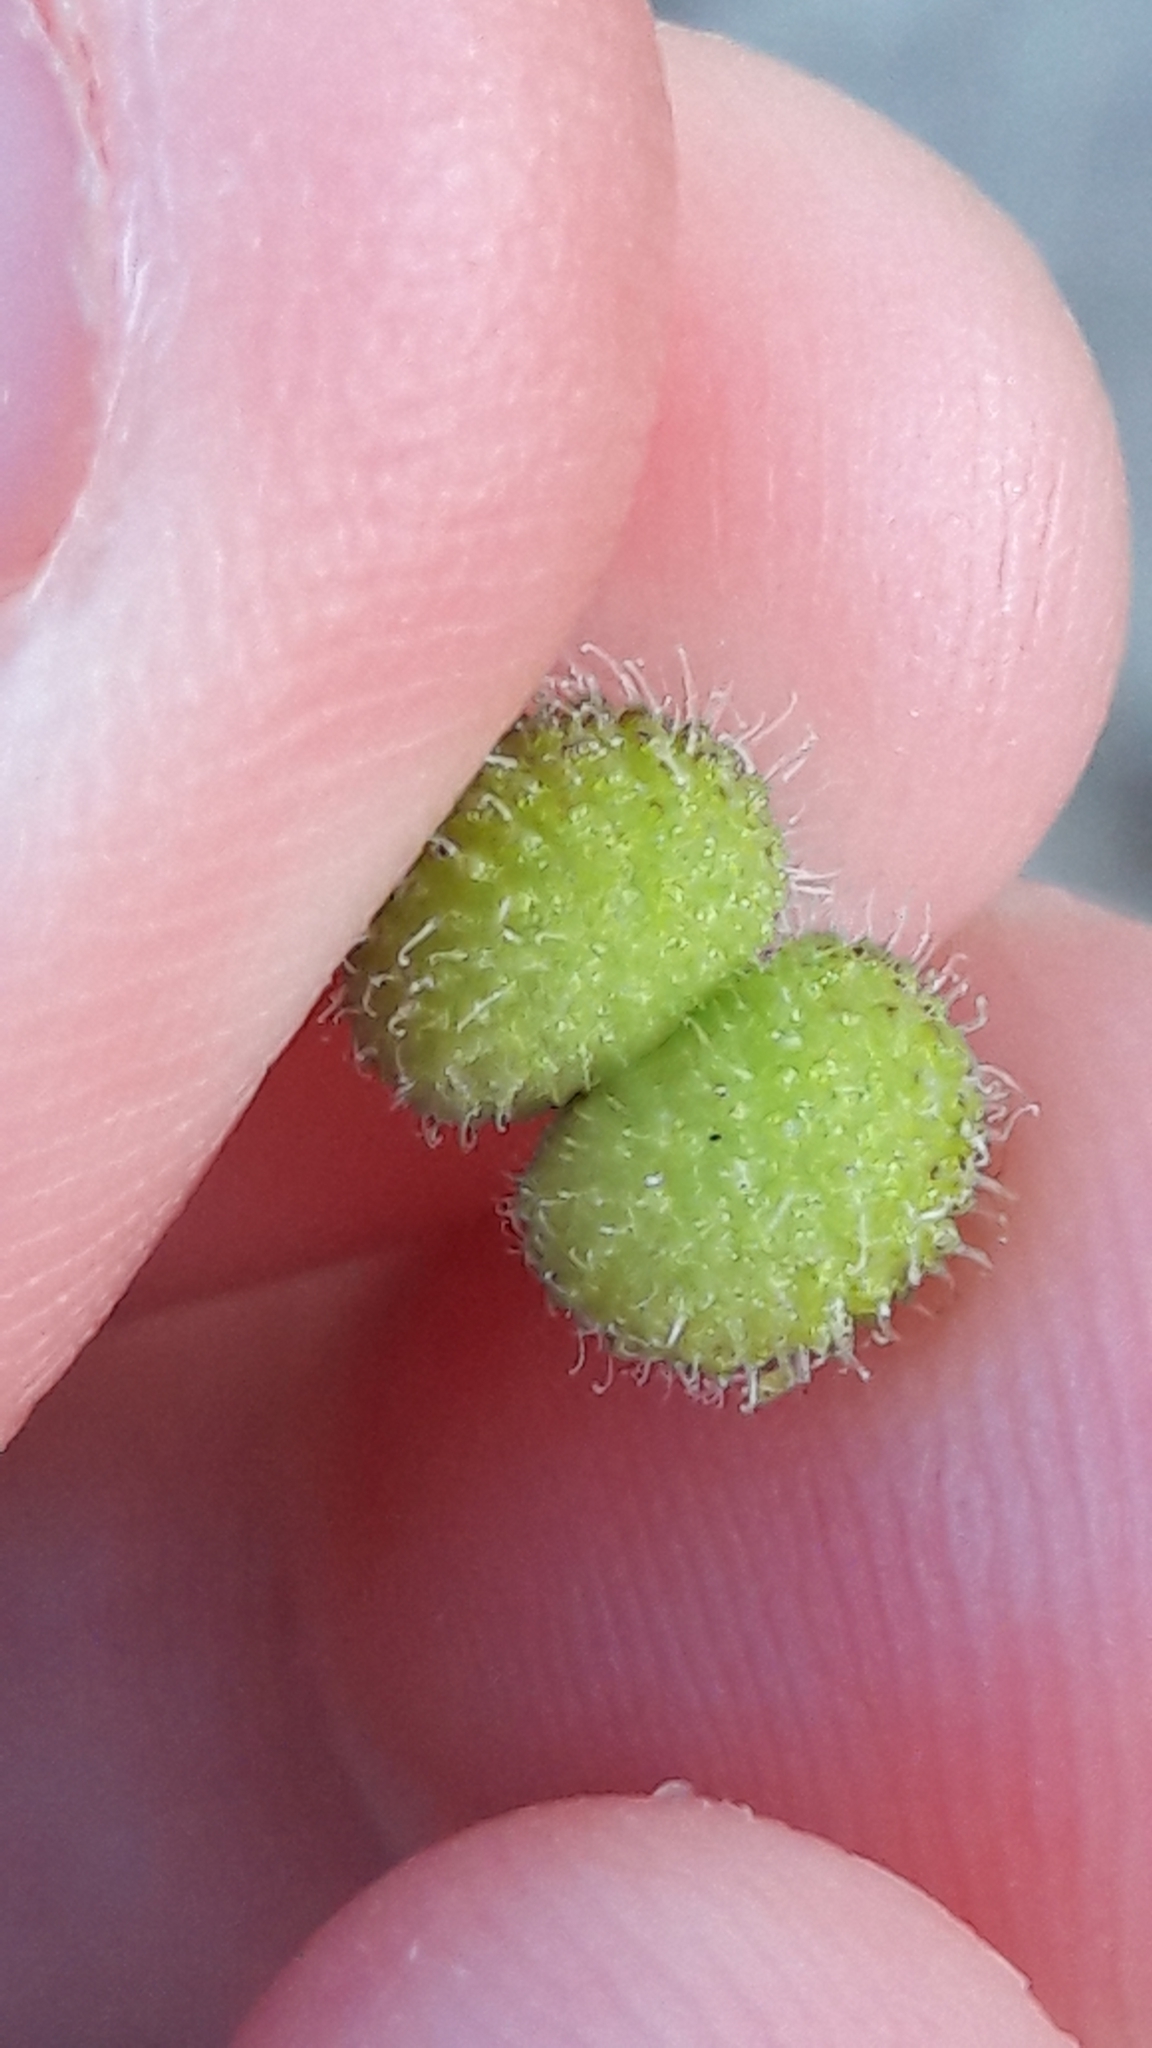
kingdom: Plantae
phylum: Tracheophyta
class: Magnoliopsida
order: Gentianales
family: Rubiaceae
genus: Galium
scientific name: Galium aparine
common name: Cleavers
